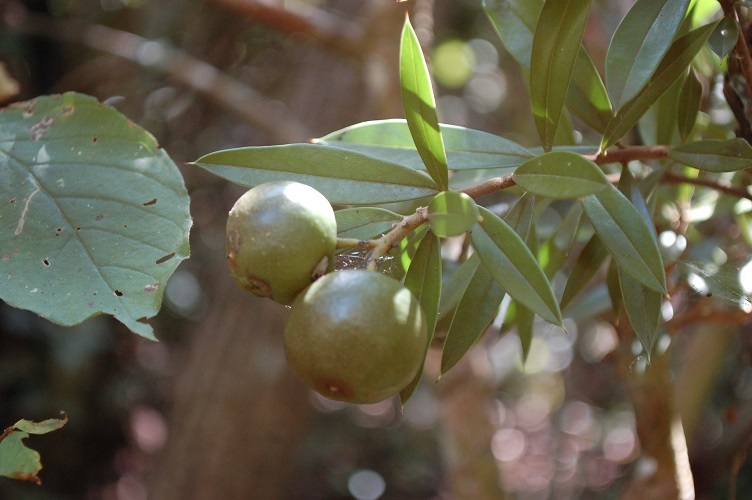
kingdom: Plantae
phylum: Tracheophyta
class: Magnoliopsida
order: Ericales
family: Primulaceae
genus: Bonellia
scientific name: Bonellia macrocarpa
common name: Primrose
